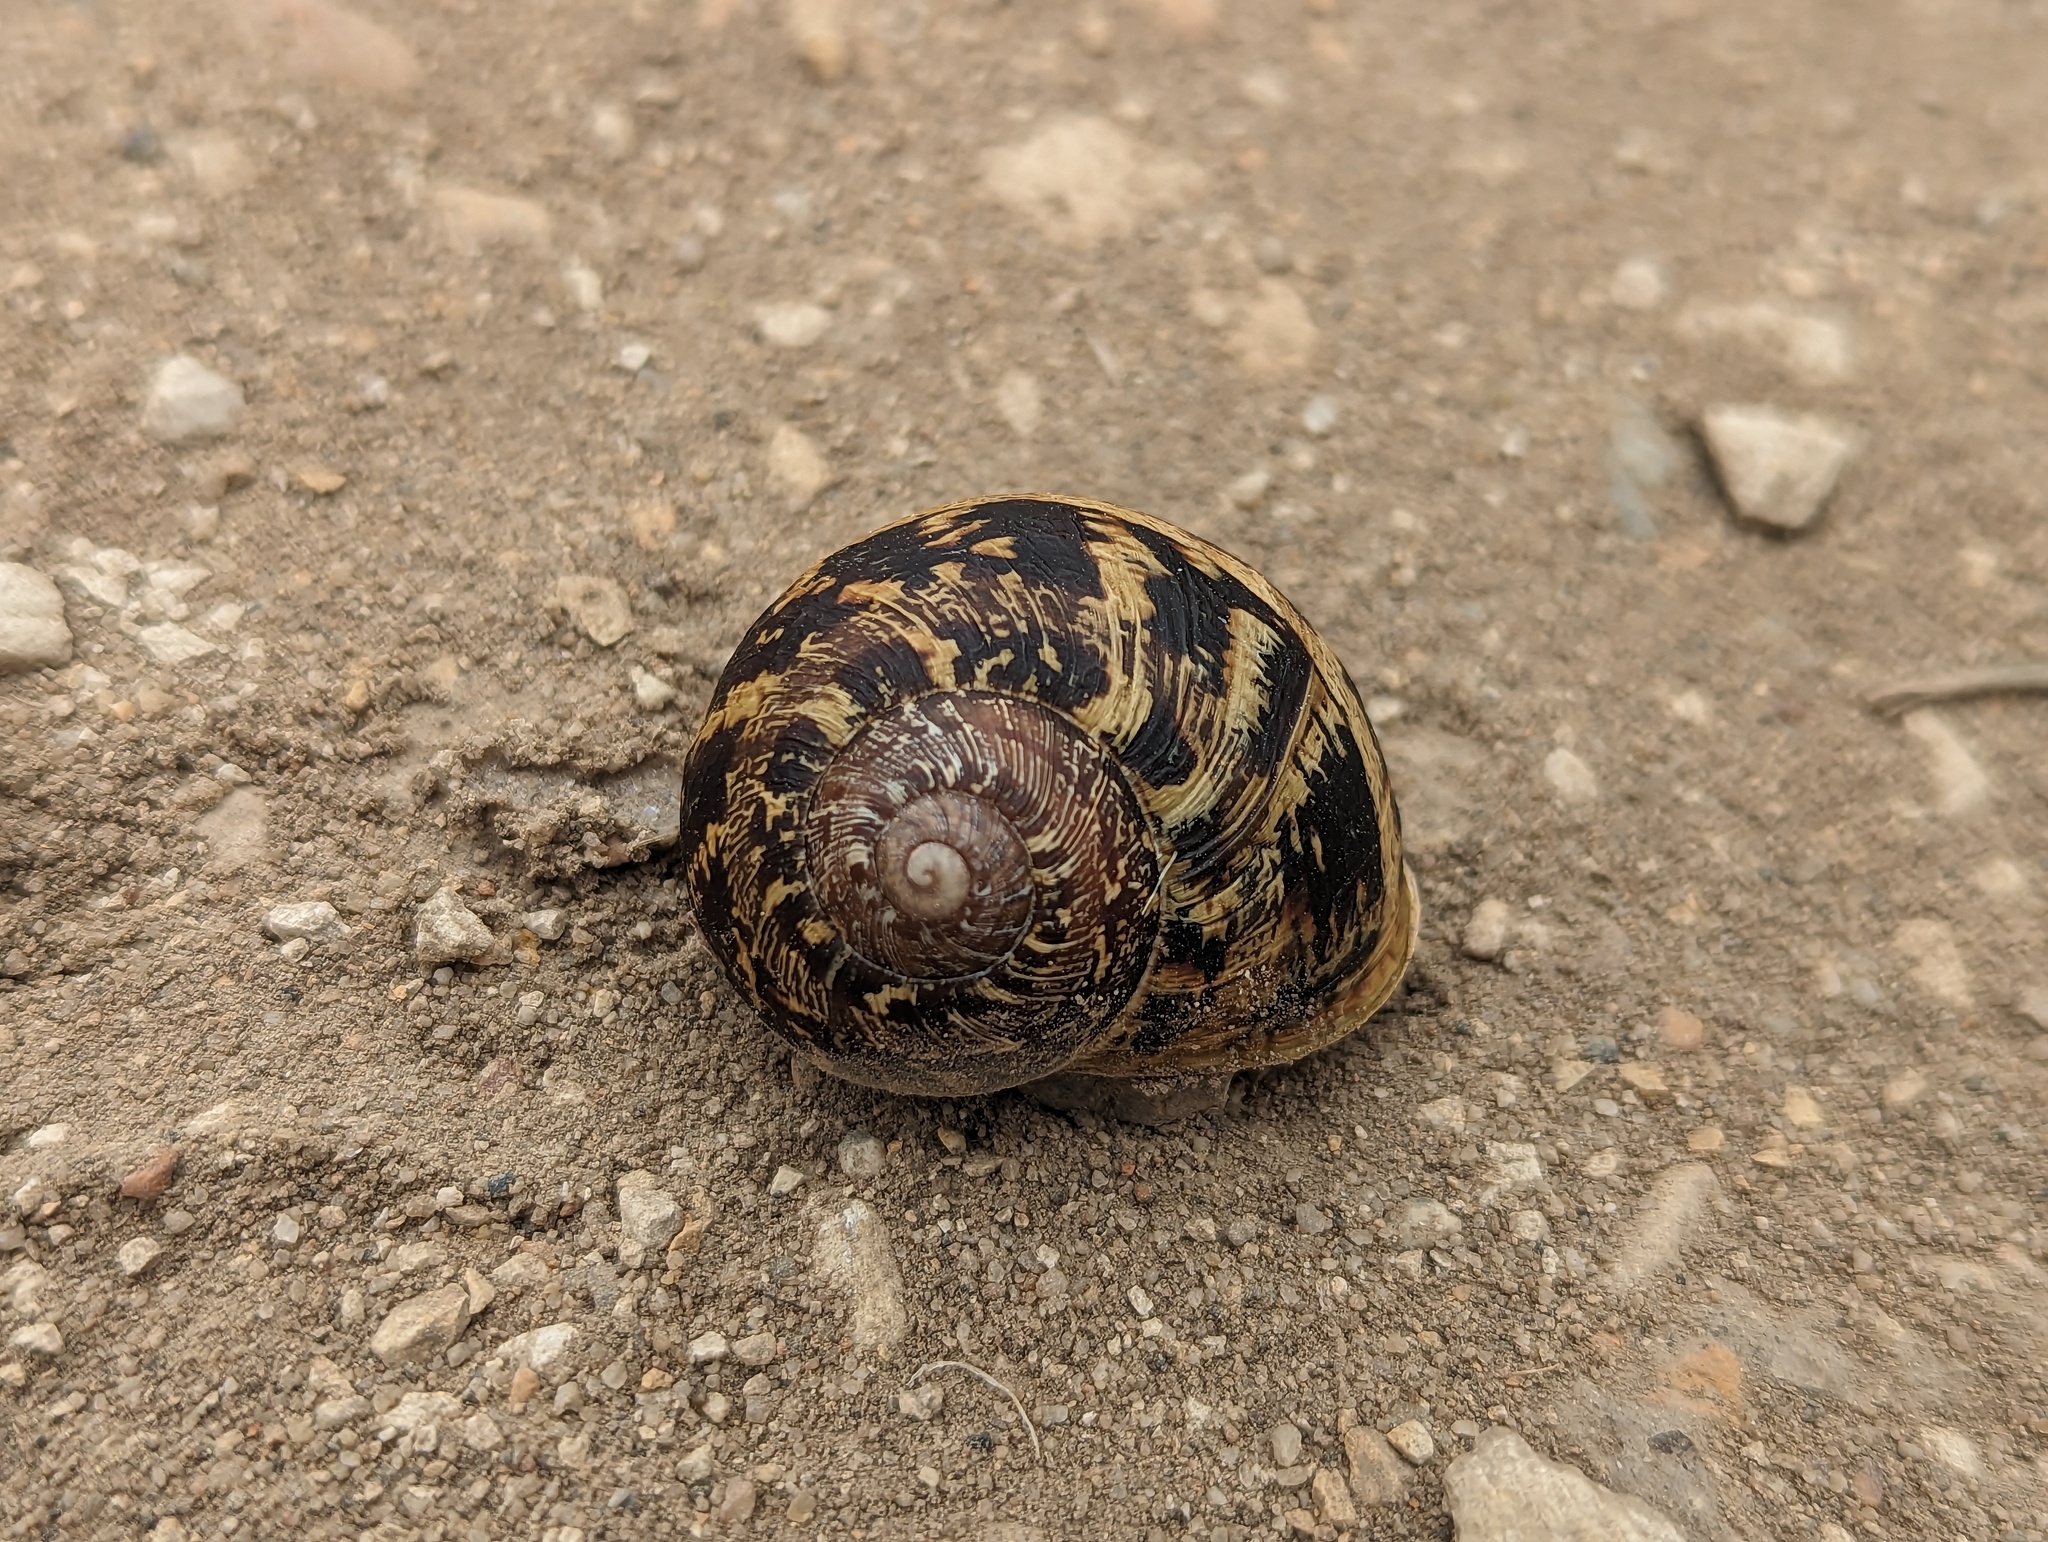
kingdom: Animalia
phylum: Mollusca
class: Gastropoda
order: Stylommatophora
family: Helicidae
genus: Cornu
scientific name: Cornu aspersum
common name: Brown garden snail
